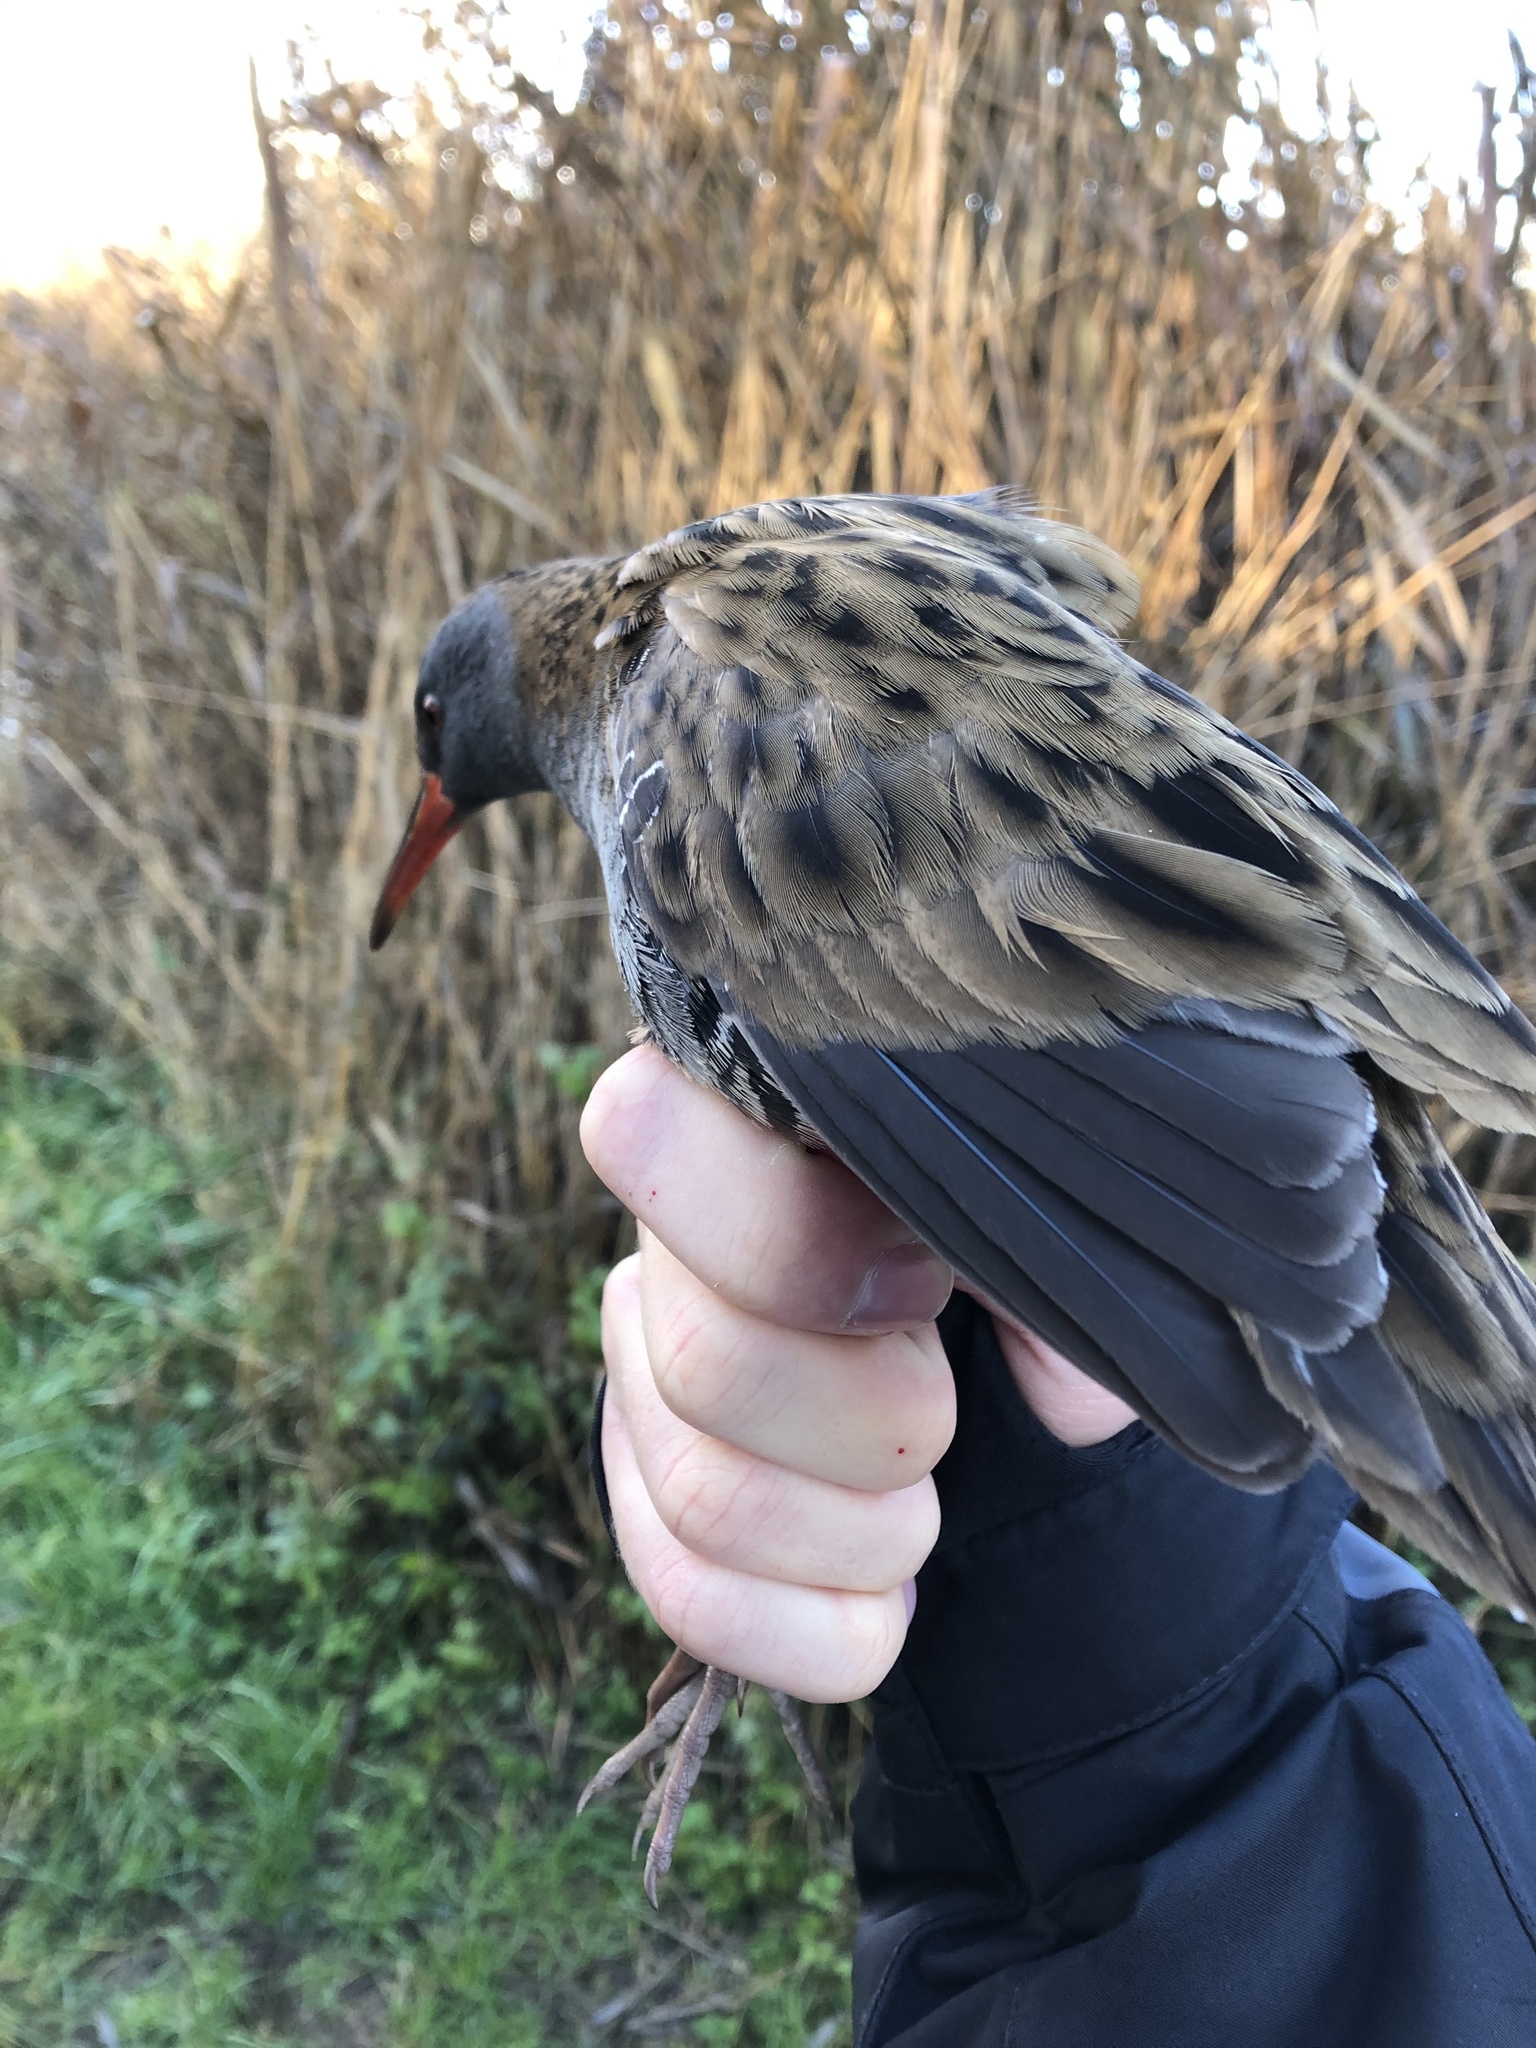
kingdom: Animalia
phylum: Chordata
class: Aves
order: Gruiformes
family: Rallidae
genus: Rallus
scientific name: Rallus aquaticus
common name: Water rail
